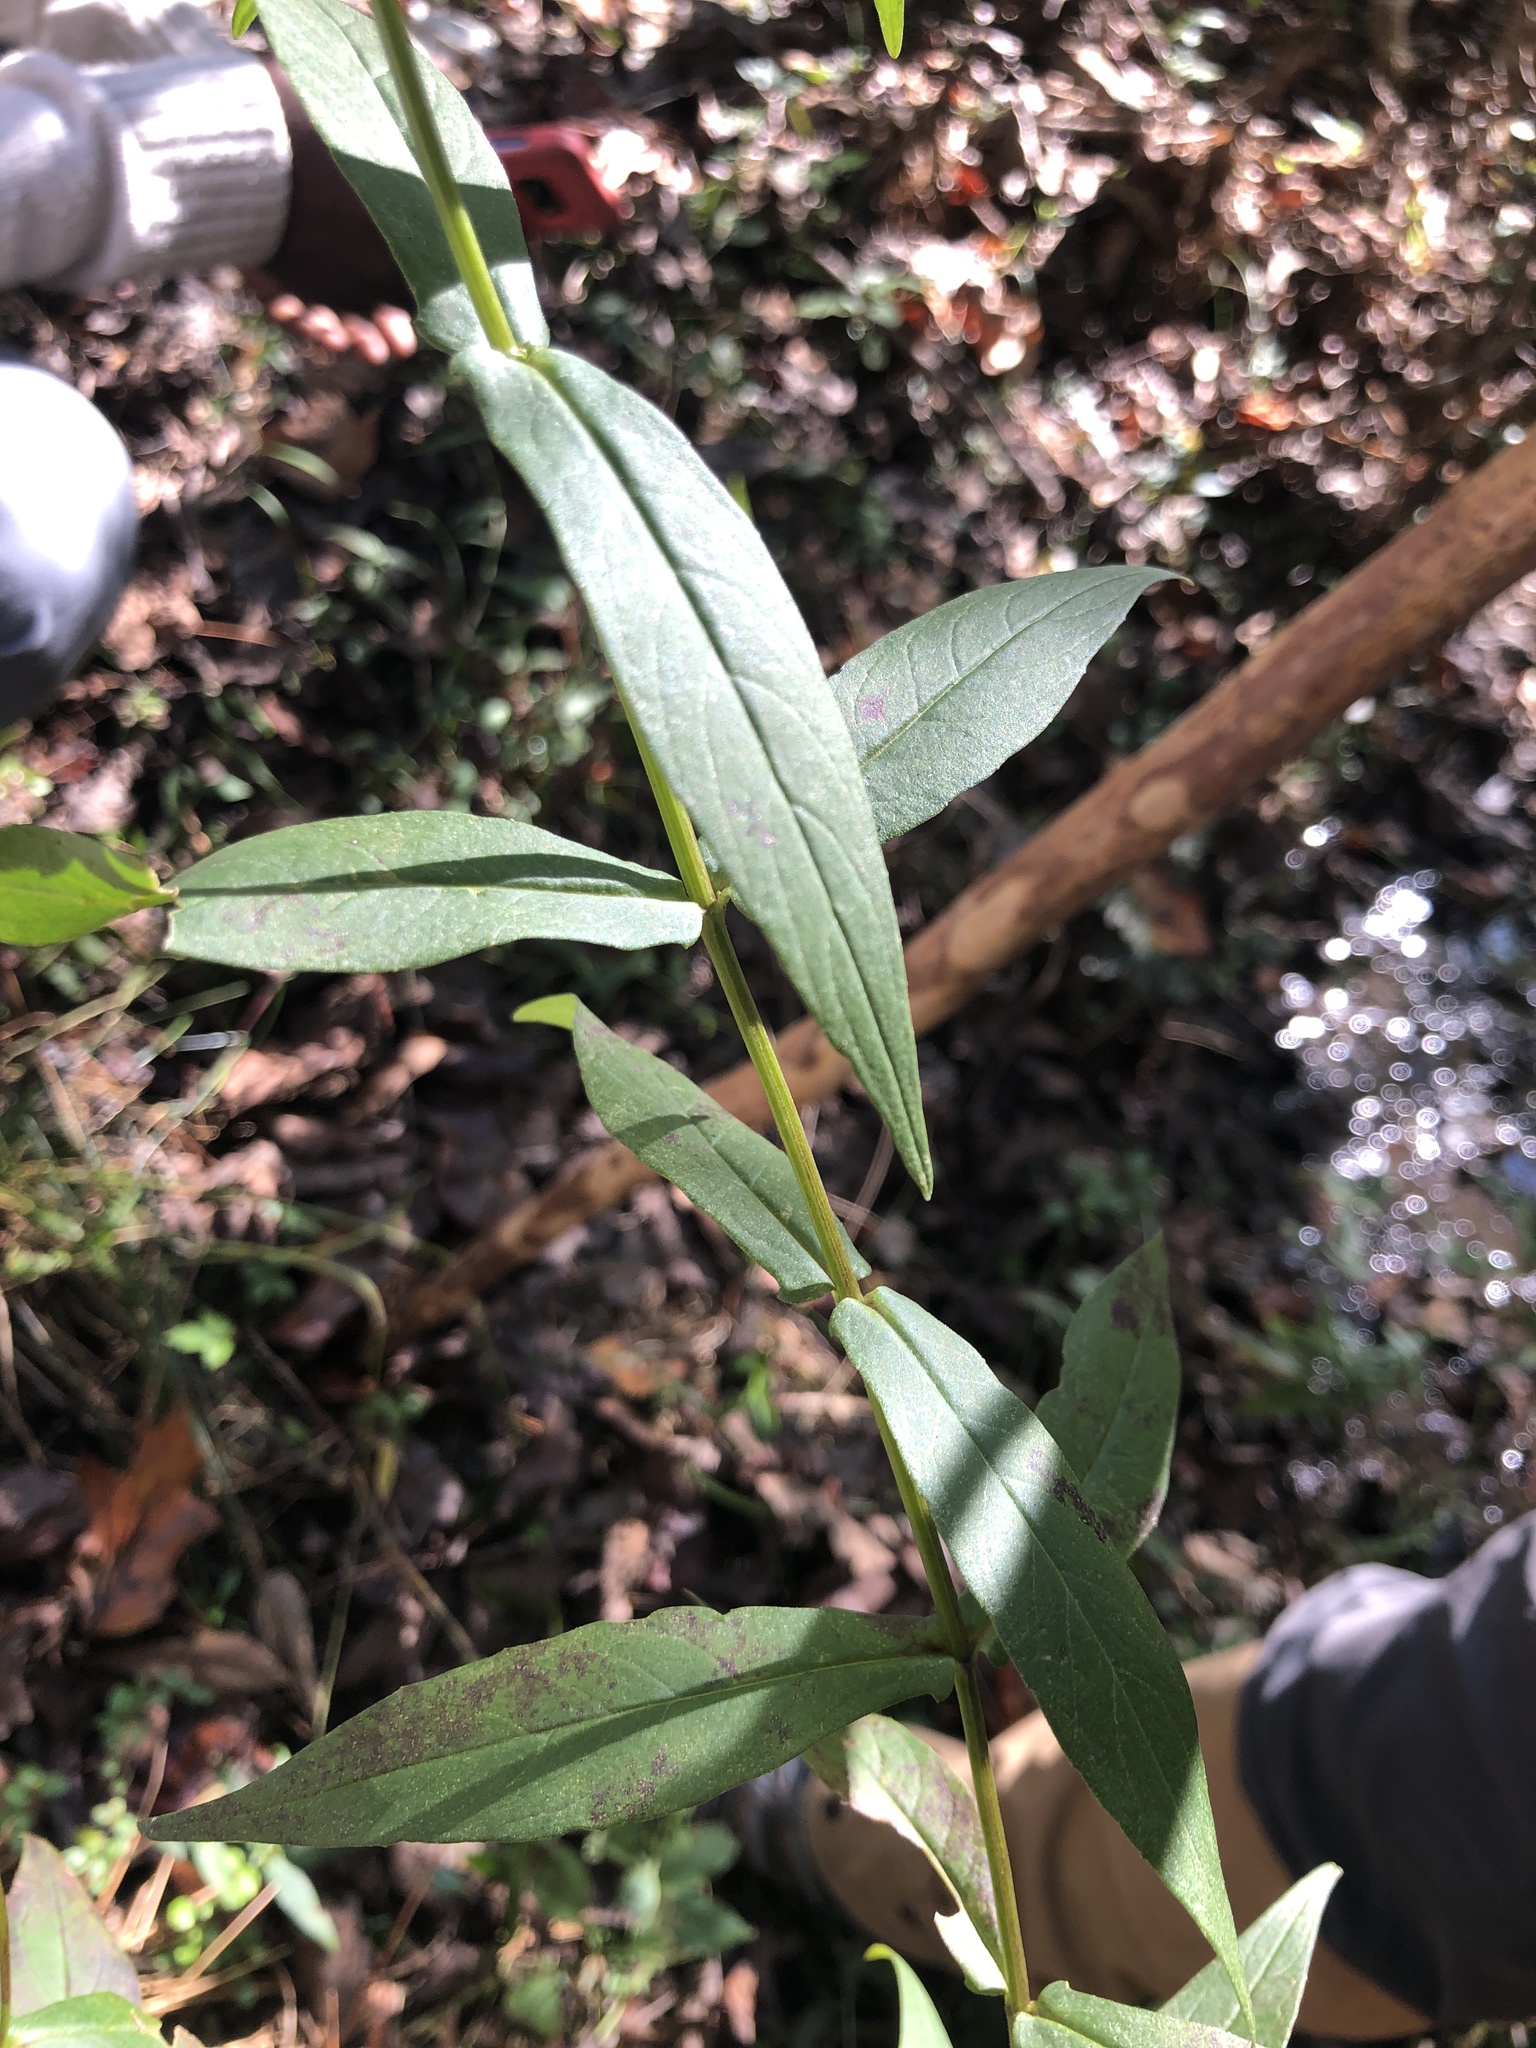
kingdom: Plantae
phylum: Tracheophyta
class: Magnoliopsida
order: Asterales
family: Asteraceae
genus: Jamesianthus
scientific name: Jamesianthus alabamensis
